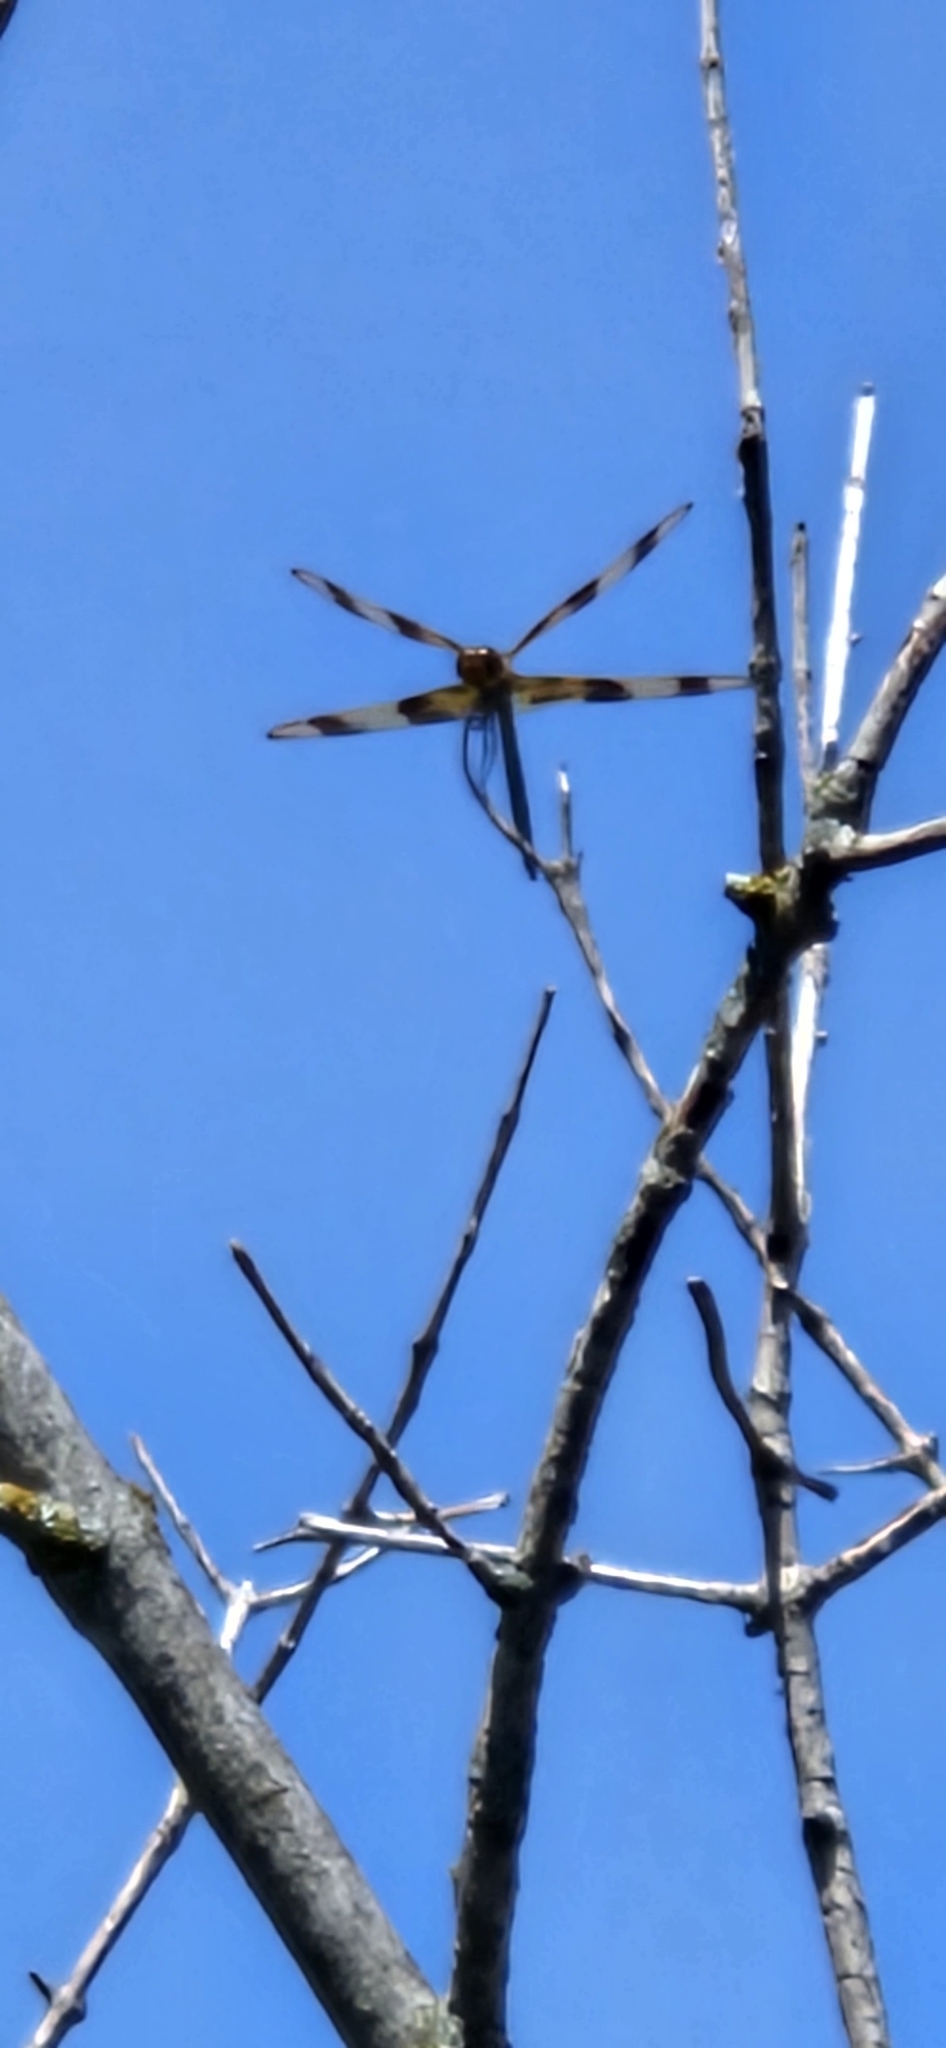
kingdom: Animalia
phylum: Arthropoda
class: Insecta
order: Odonata
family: Libellulidae
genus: Celithemis
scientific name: Celithemis eponina
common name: Halloween pennant
